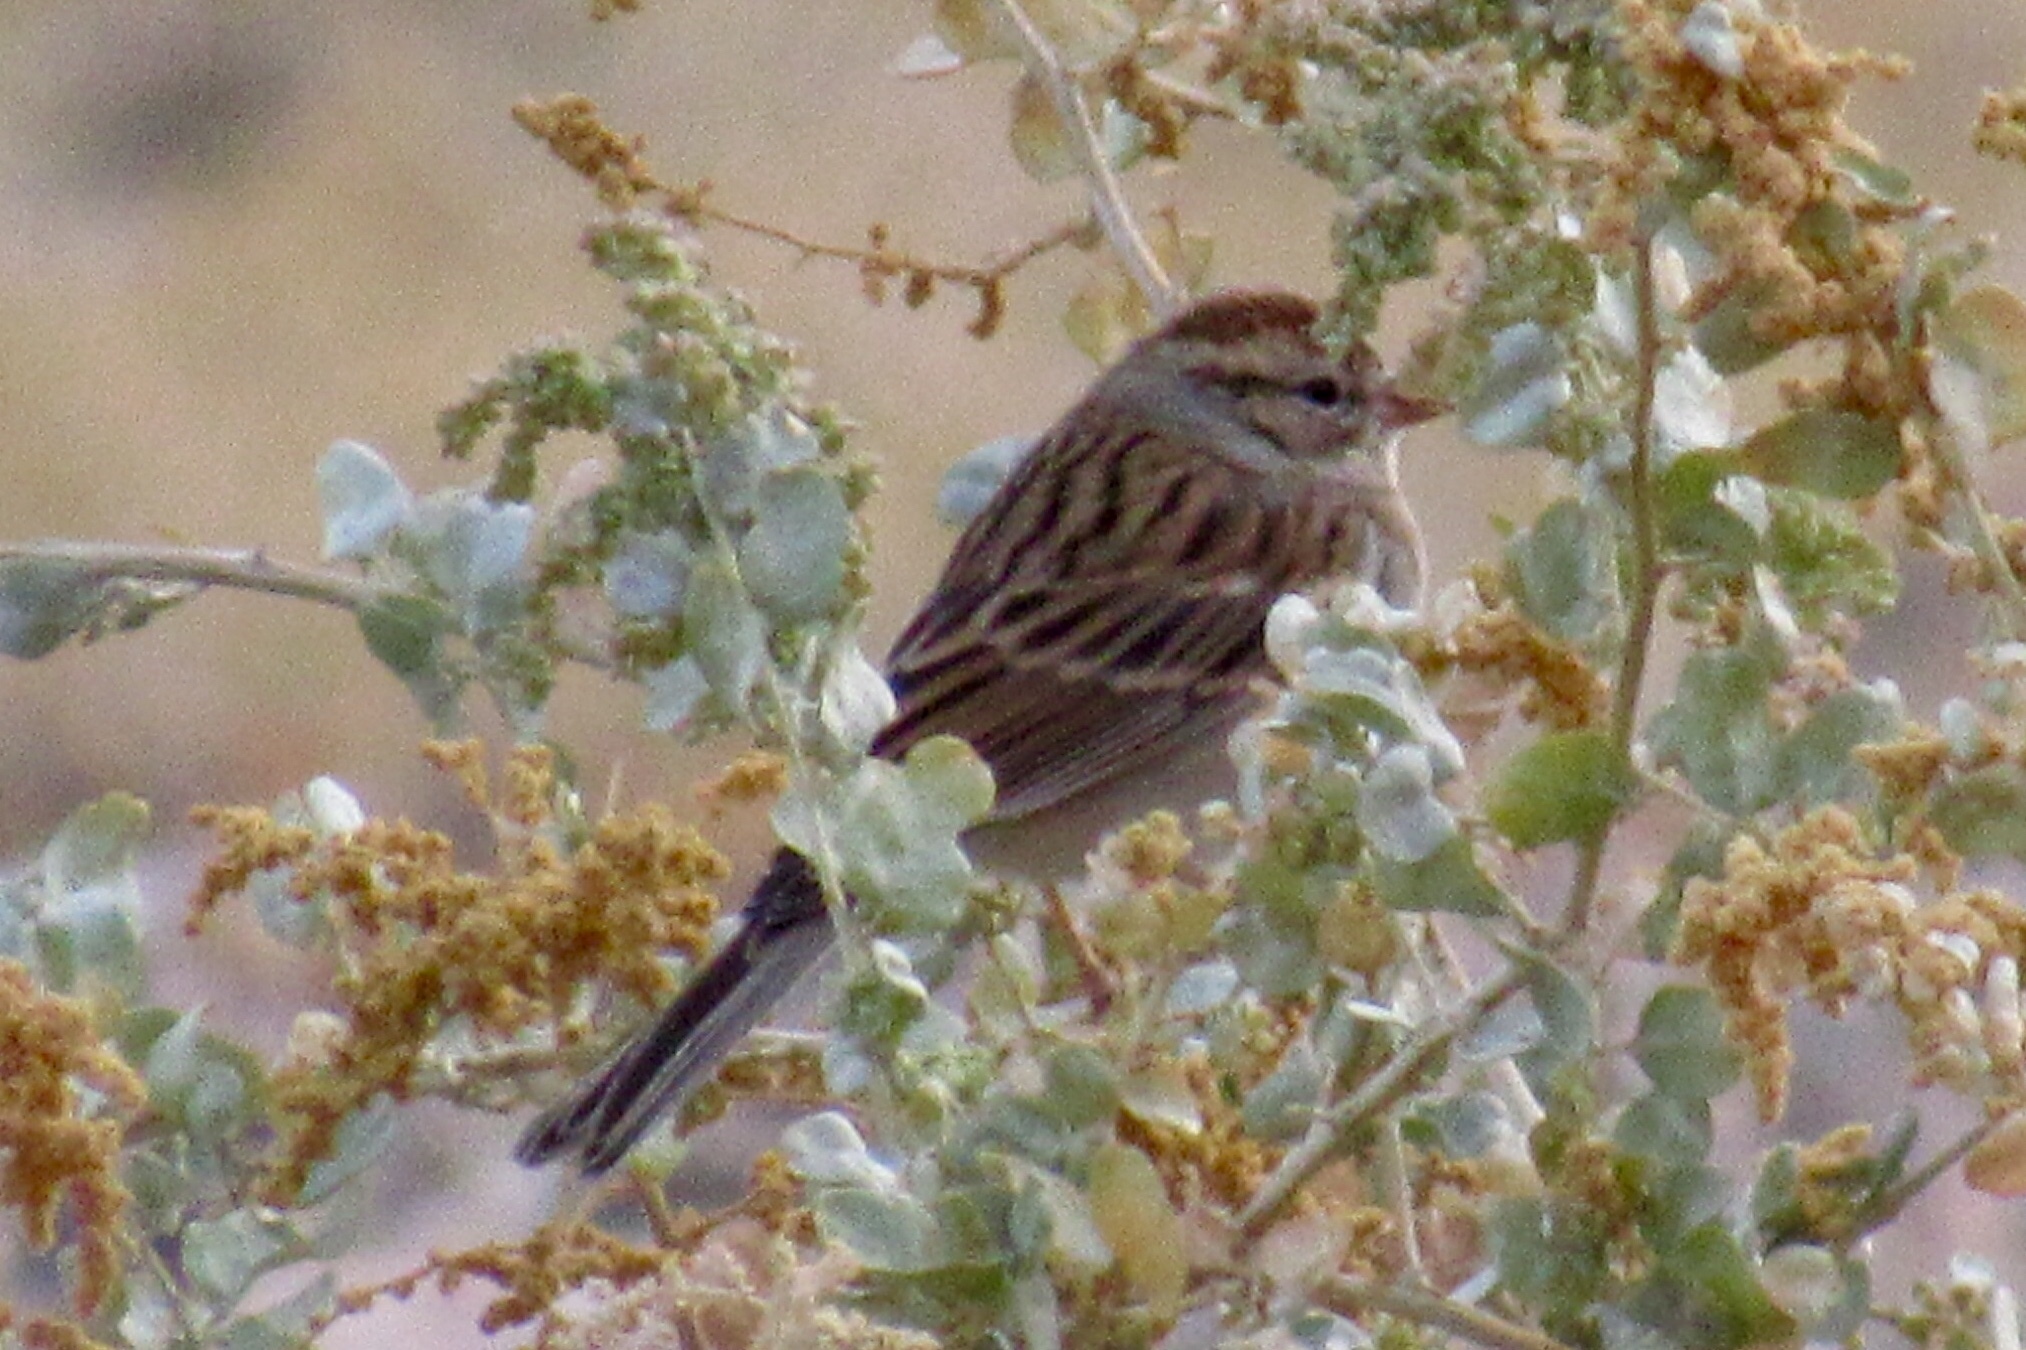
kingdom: Animalia
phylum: Chordata
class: Aves
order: Passeriformes
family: Passerellidae
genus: Spizella
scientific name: Spizella passerina
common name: Chipping sparrow
